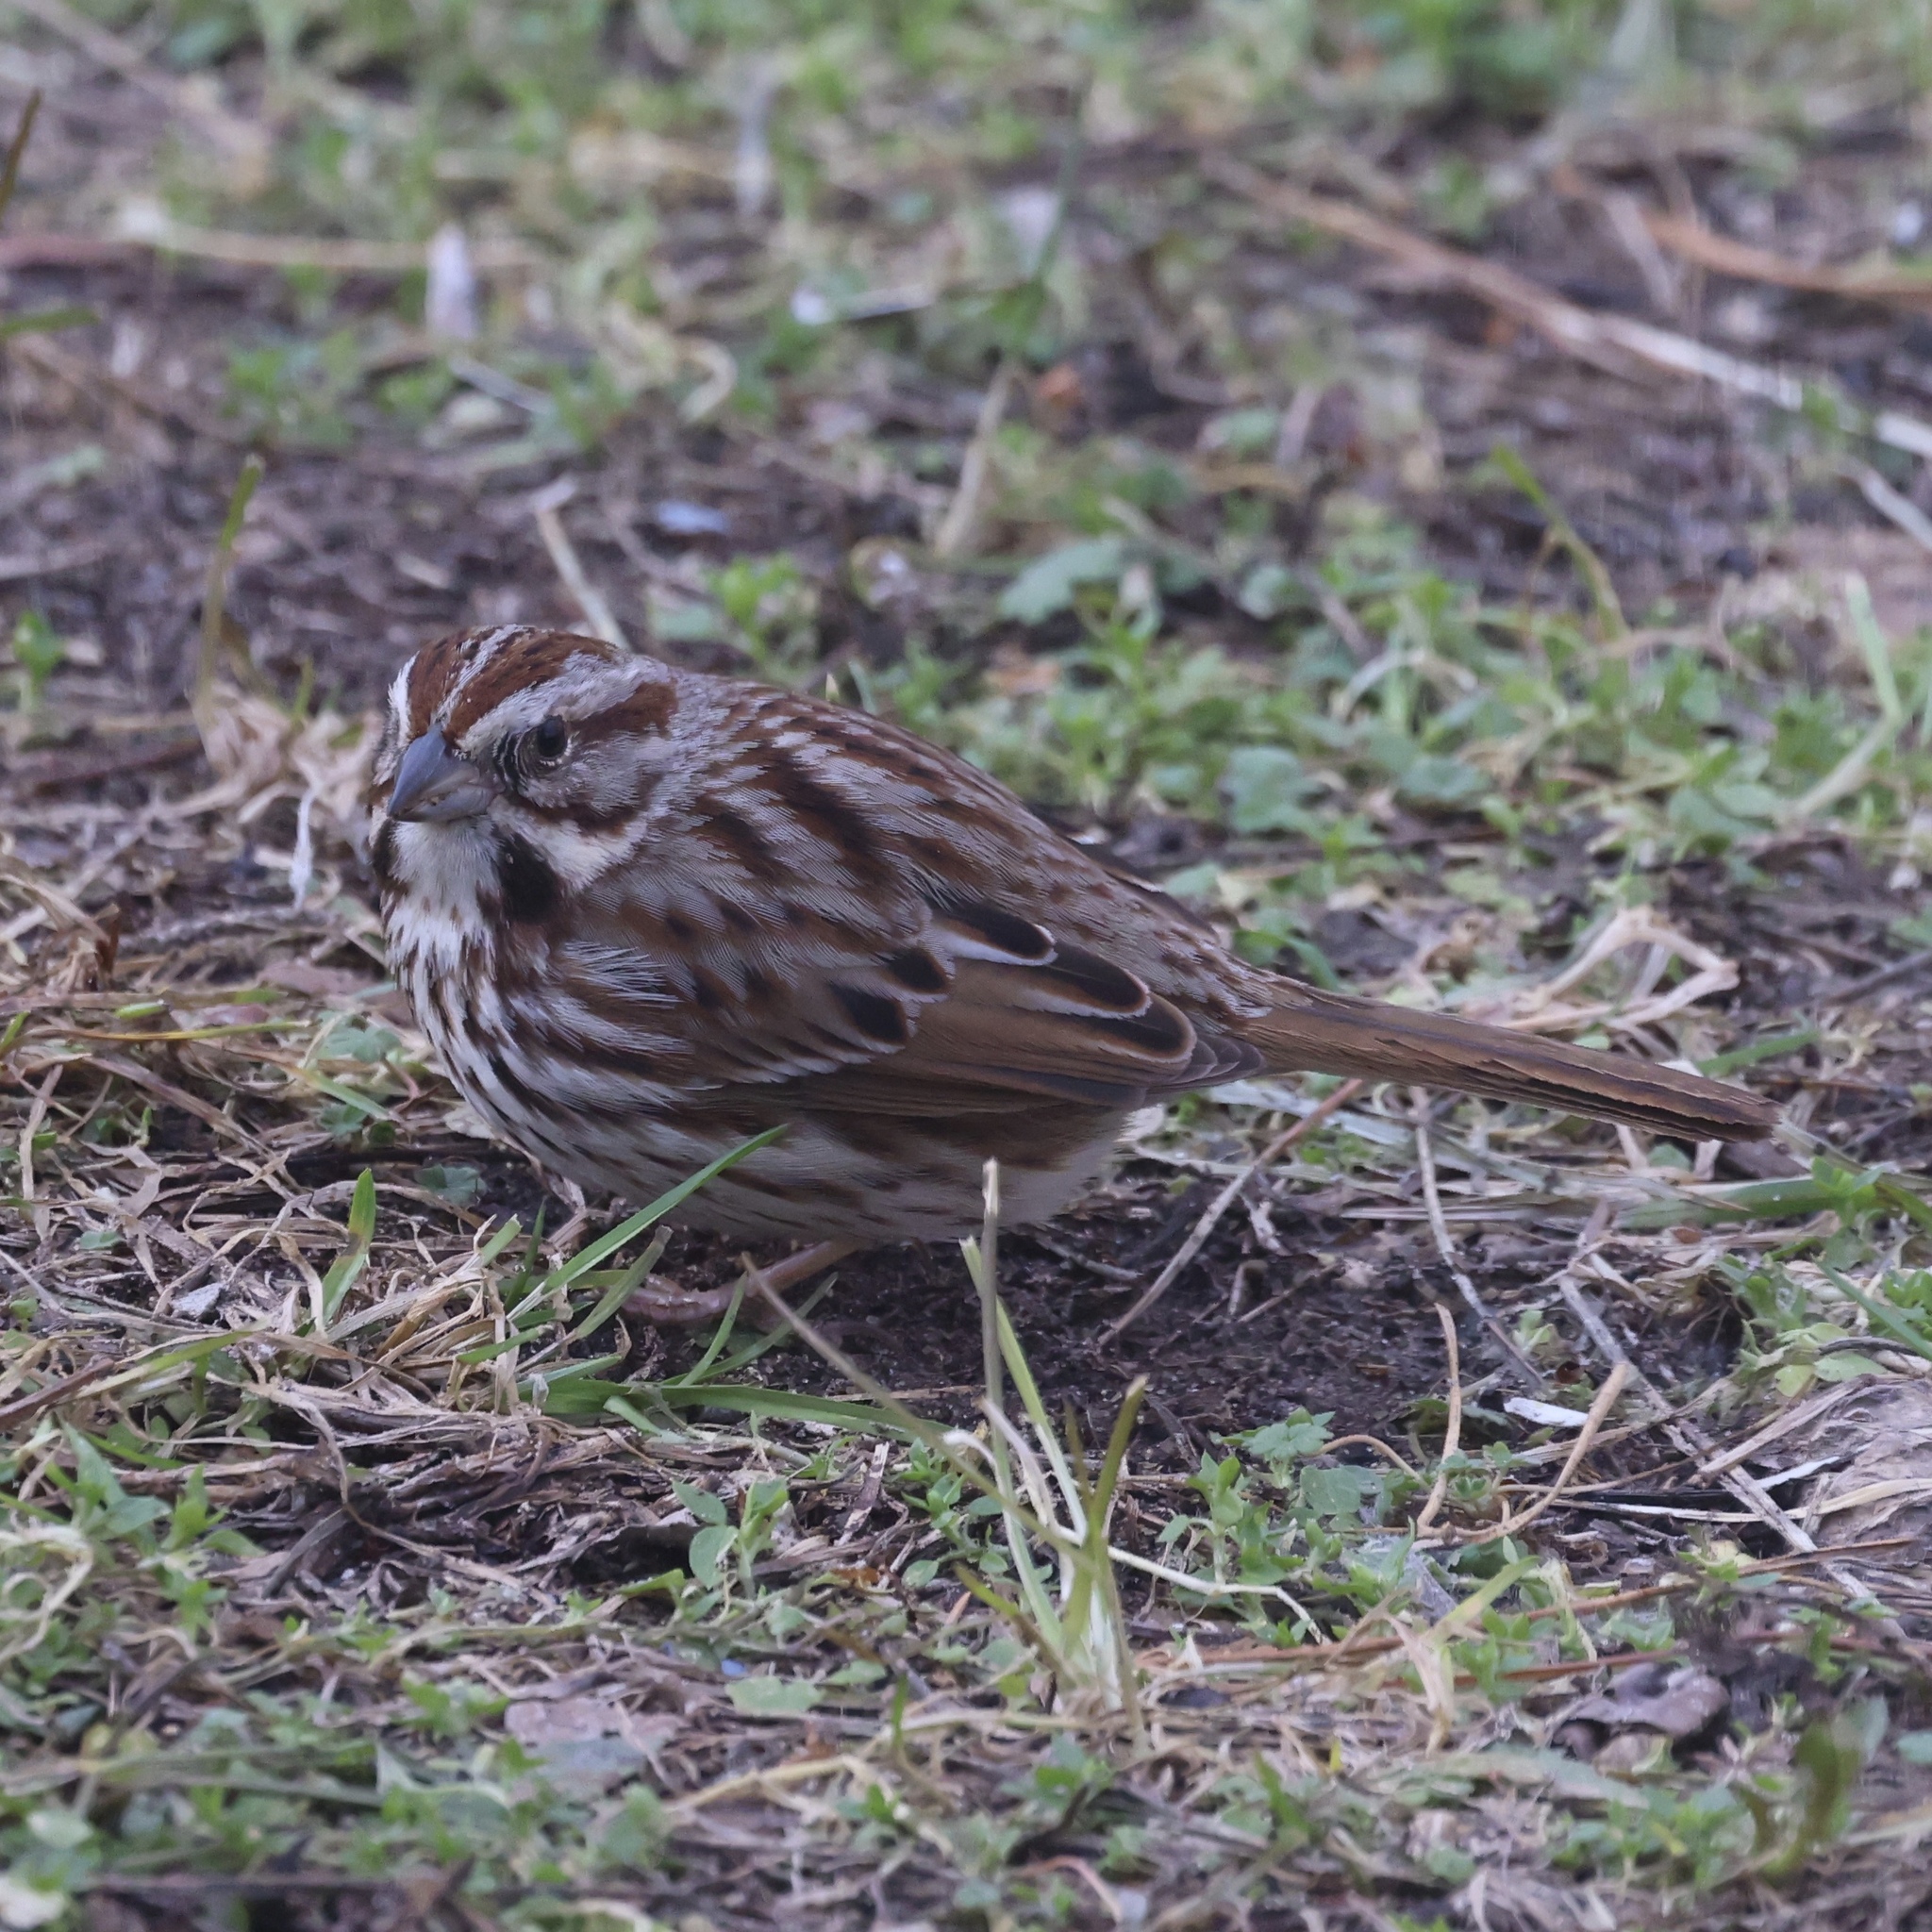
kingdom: Animalia
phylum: Chordata
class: Aves
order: Passeriformes
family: Passerellidae
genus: Melospiza
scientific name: Melospiza melodia
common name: Song sparrow
